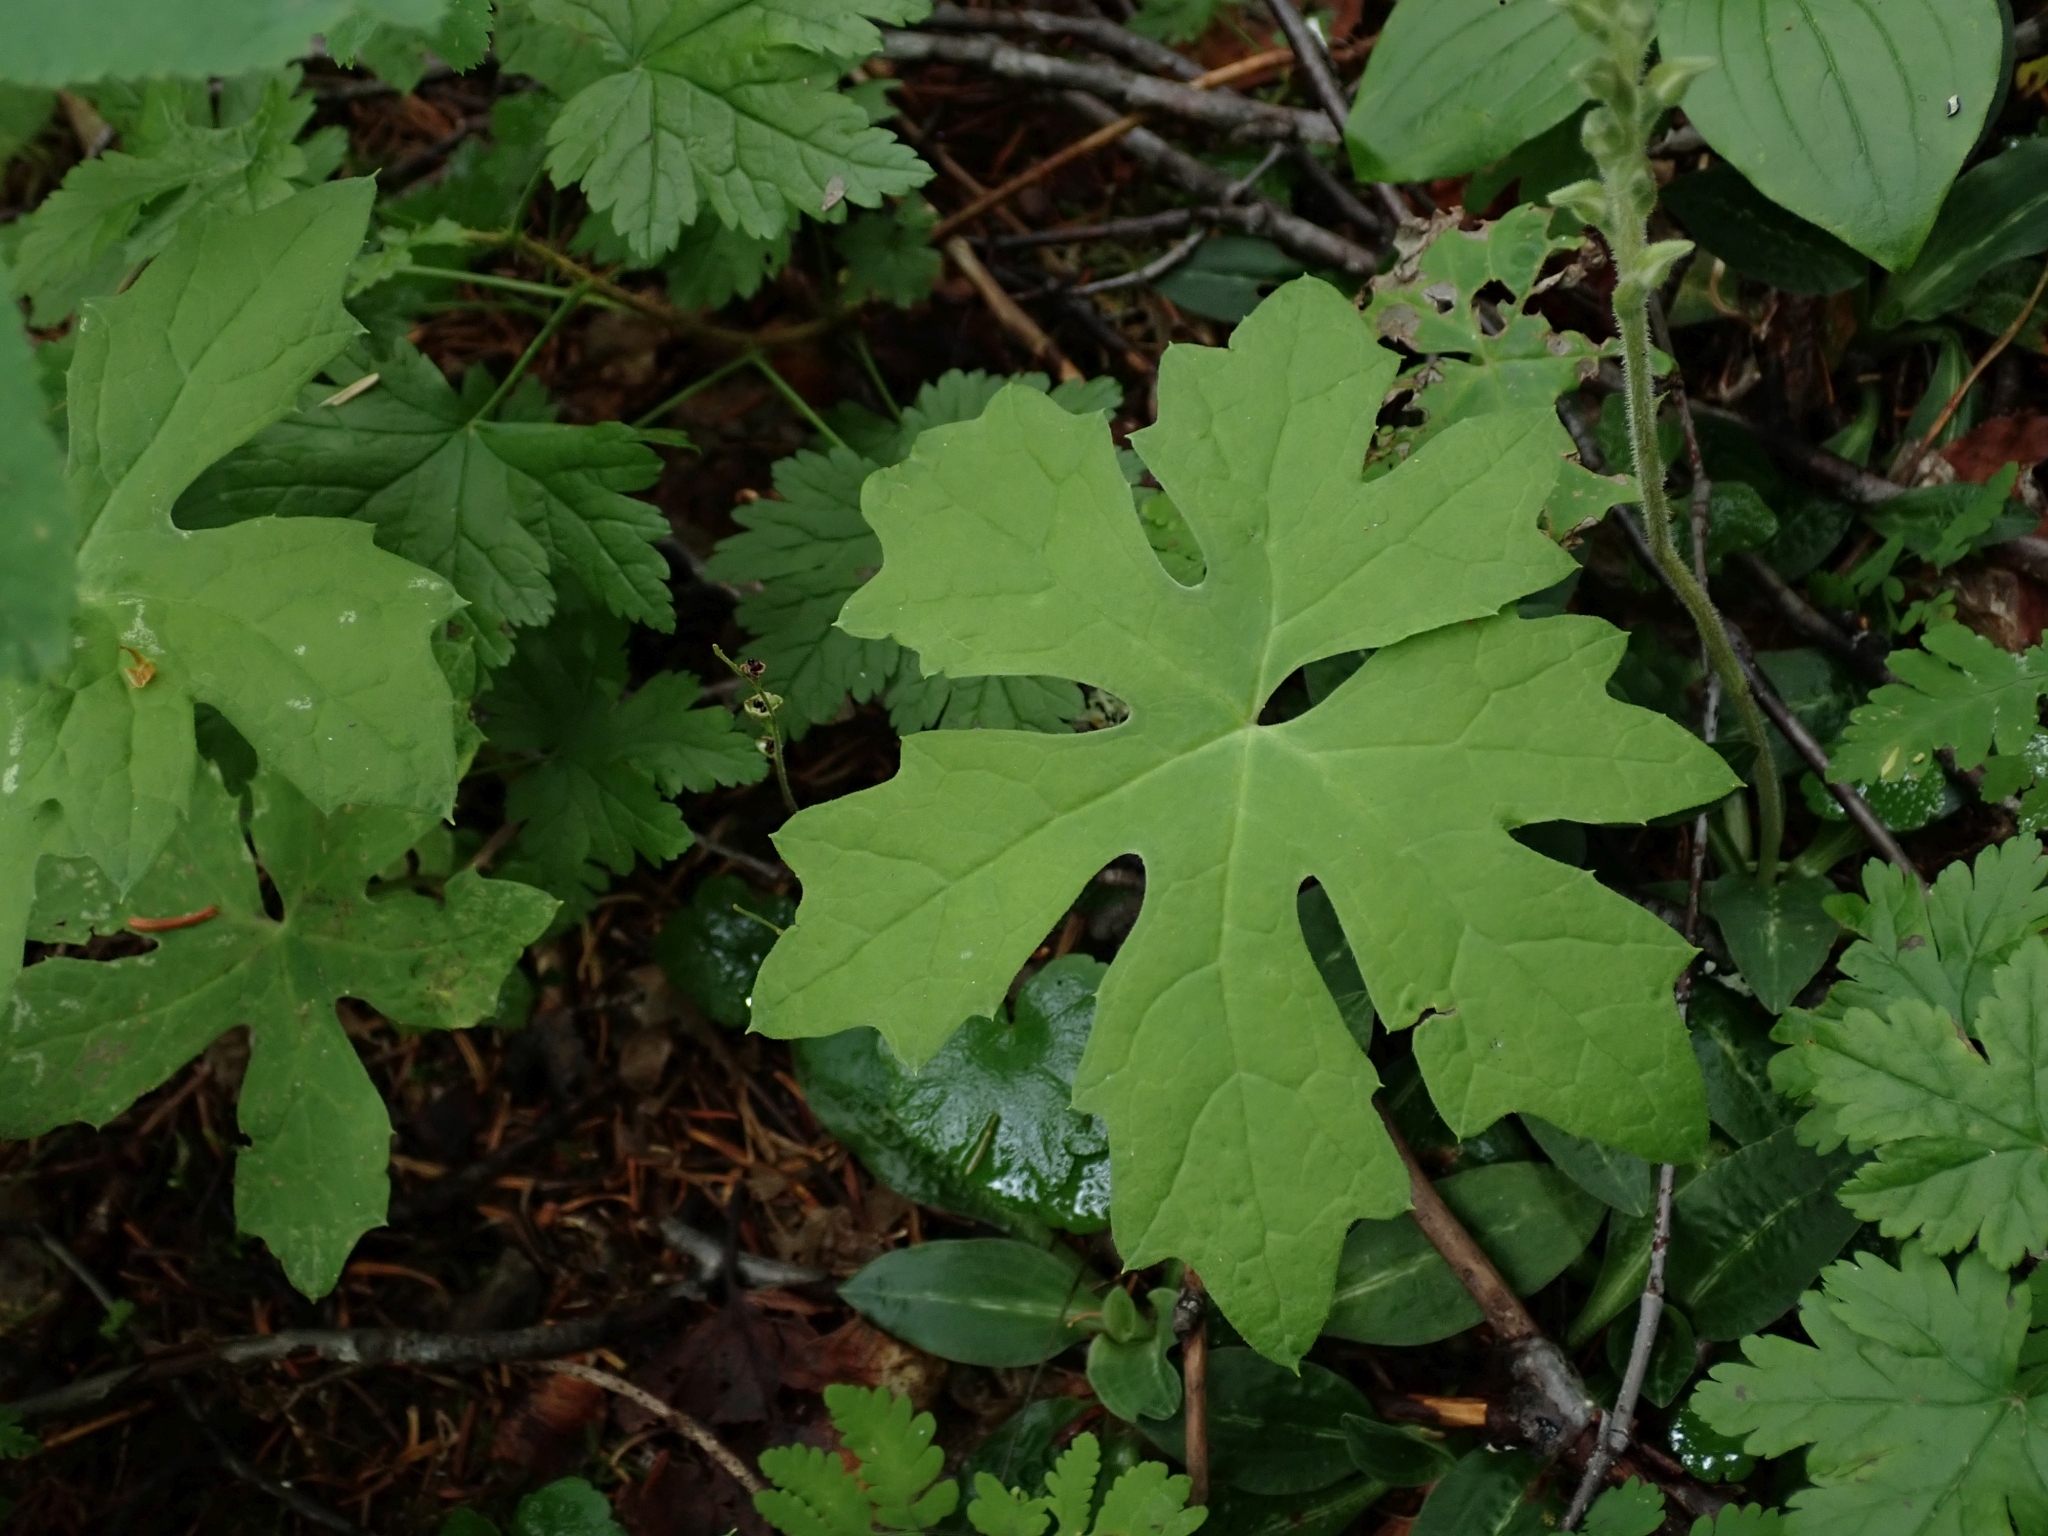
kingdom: Plantae
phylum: Tracheophyta
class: Magnoliopsida
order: Asterales
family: Asteraceae
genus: Petasites
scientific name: Petasites frigidus
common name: Arctic butterbur
